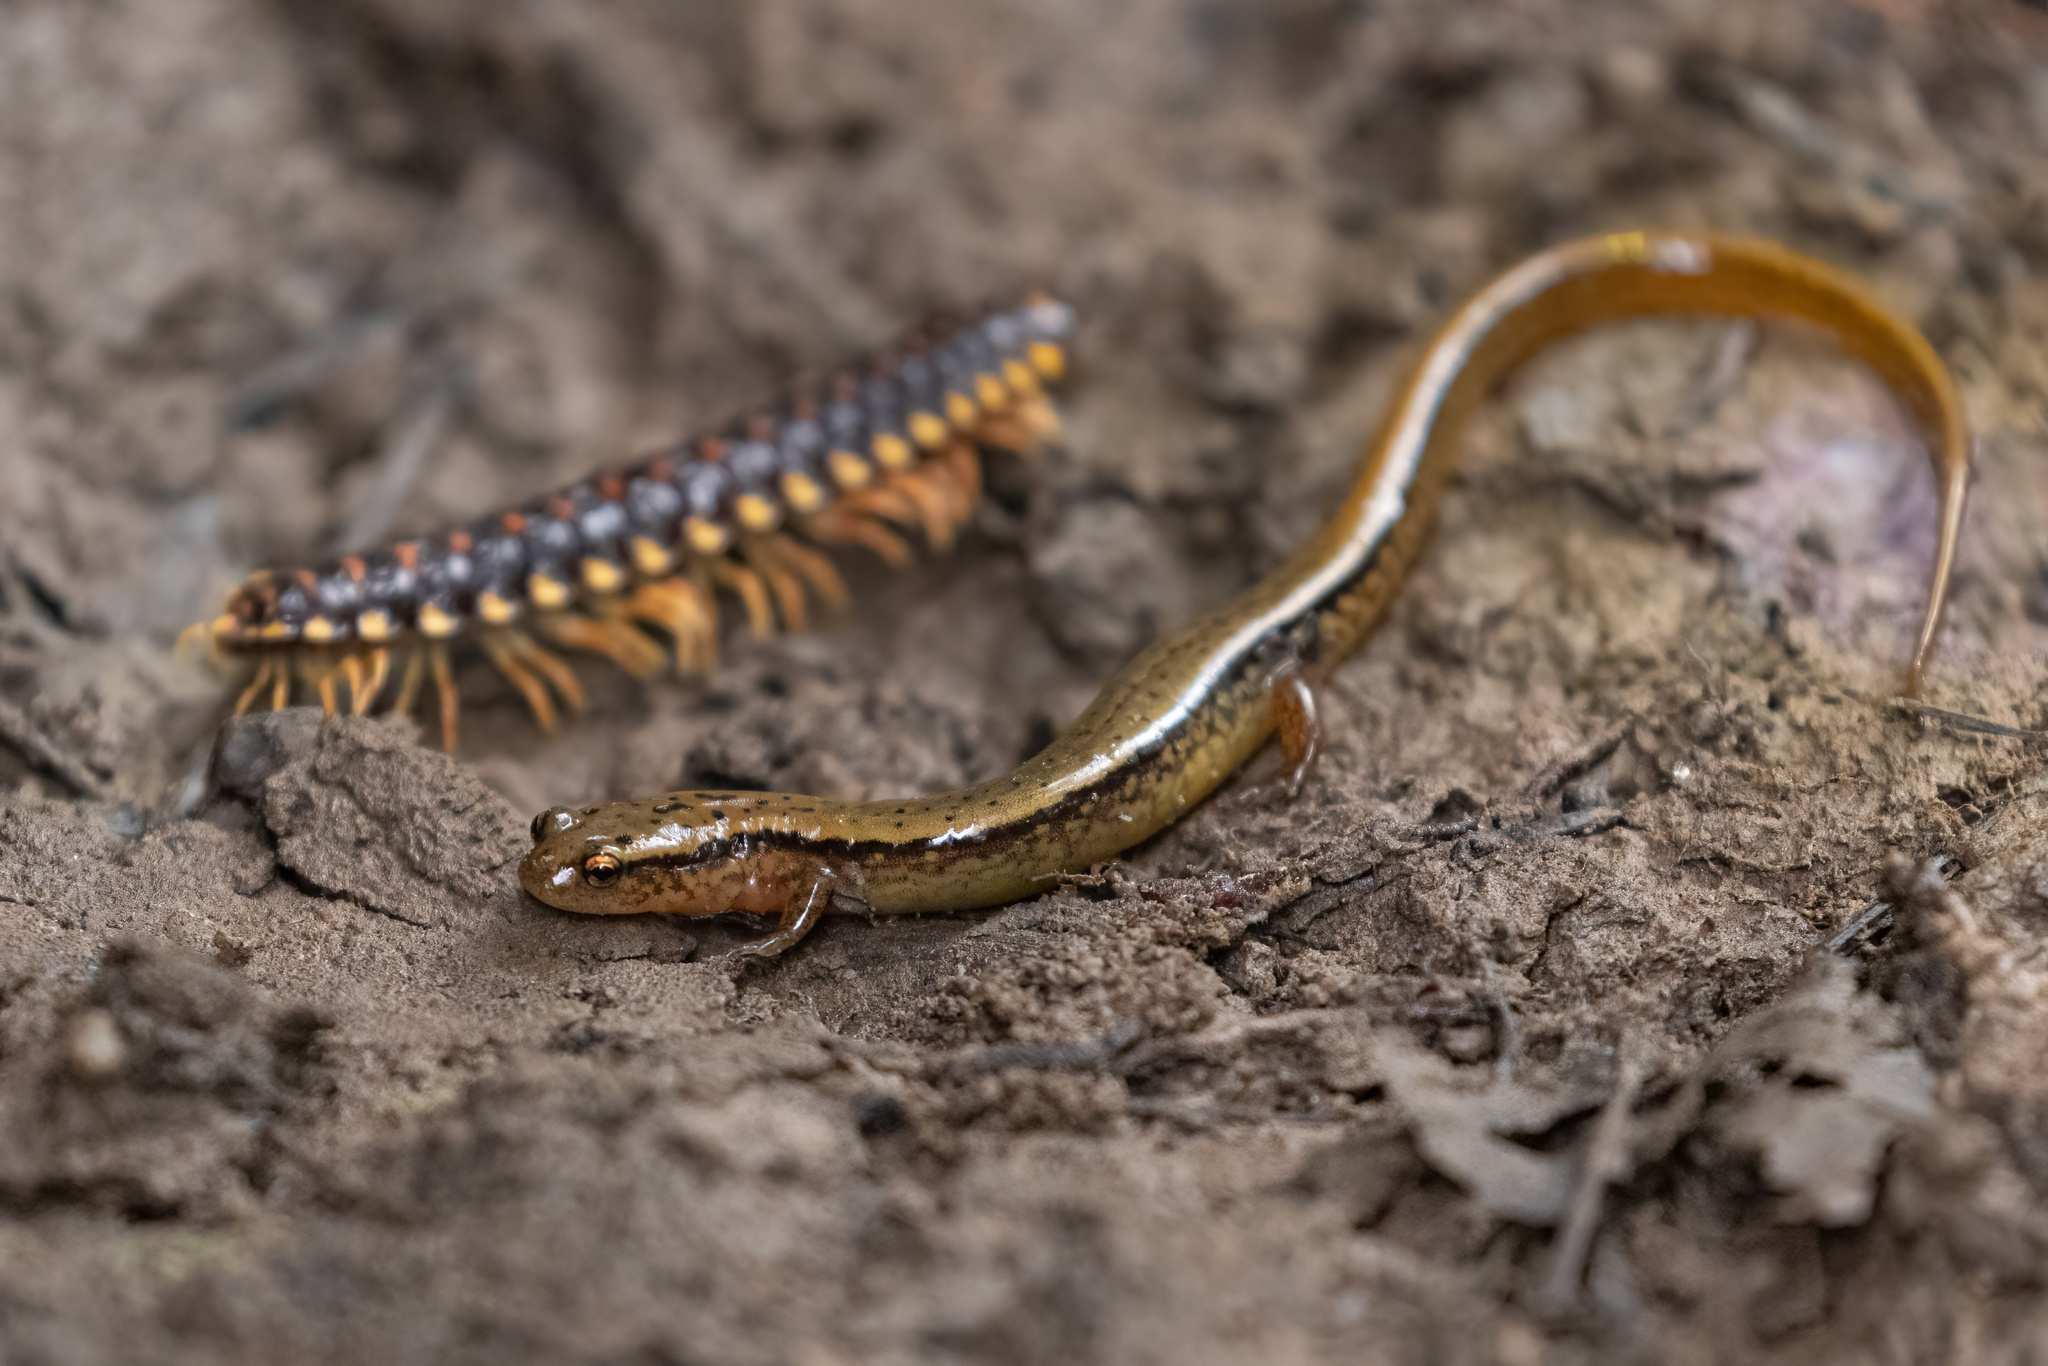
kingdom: Animalia
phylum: Chordata
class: Amphibia
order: Caudata
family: Plethodontidae
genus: Eurycea
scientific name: Eurycea bislineata
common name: Northern two-lined salamander
